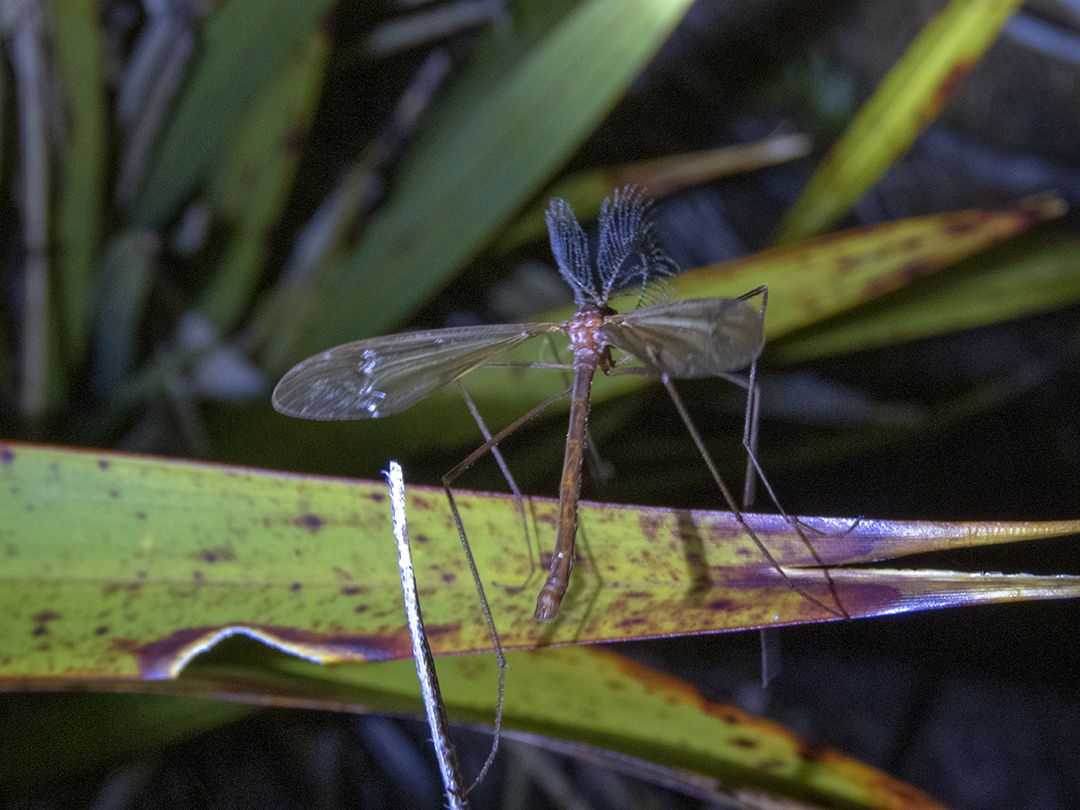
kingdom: Animalia
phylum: Arthropoda
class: Insecta
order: Diptera
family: Limoniidae
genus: Gynoplistia
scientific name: Gynoplistia
